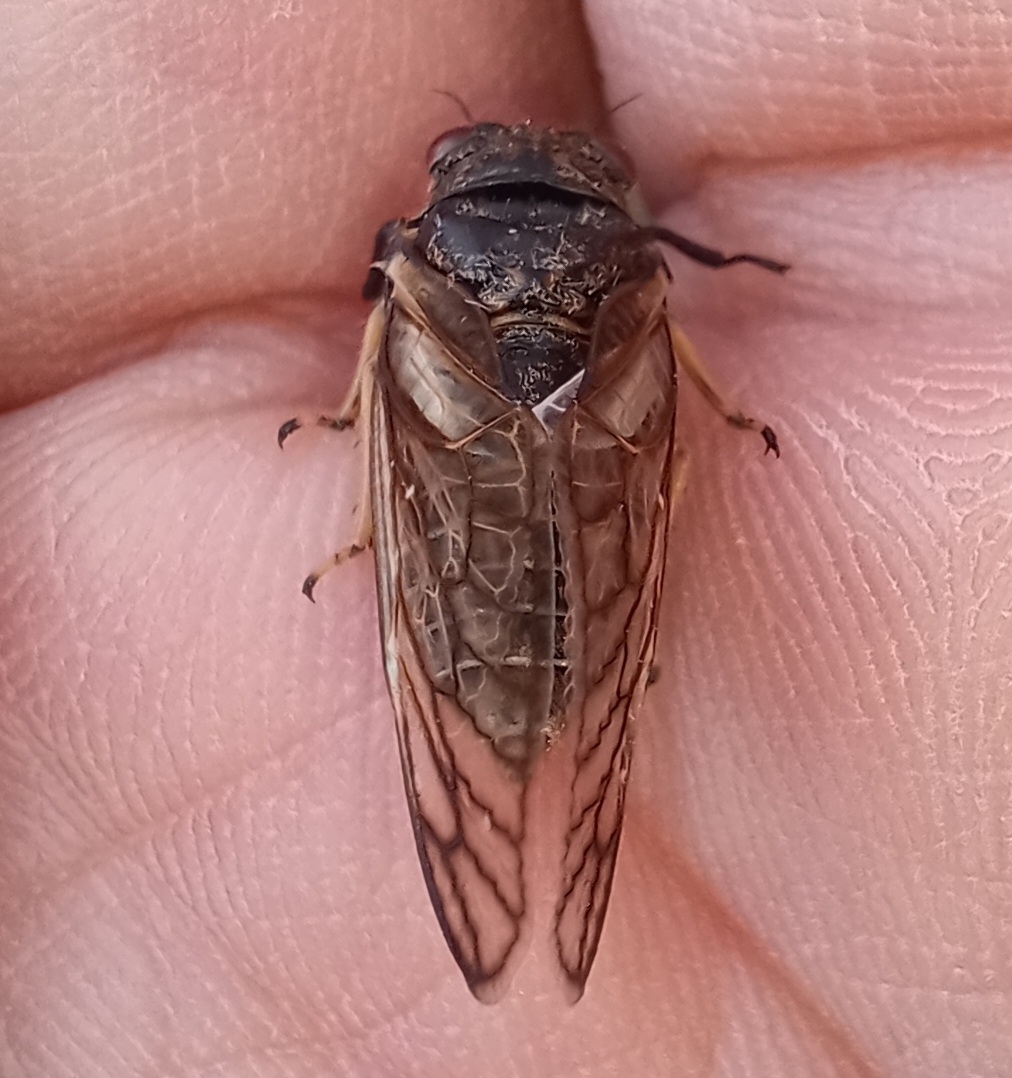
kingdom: Animalia
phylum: Arthropoda
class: Insecta
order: Hemiptera
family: Cicadidae
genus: Myopsalta
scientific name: Myopsalta waterhousei
